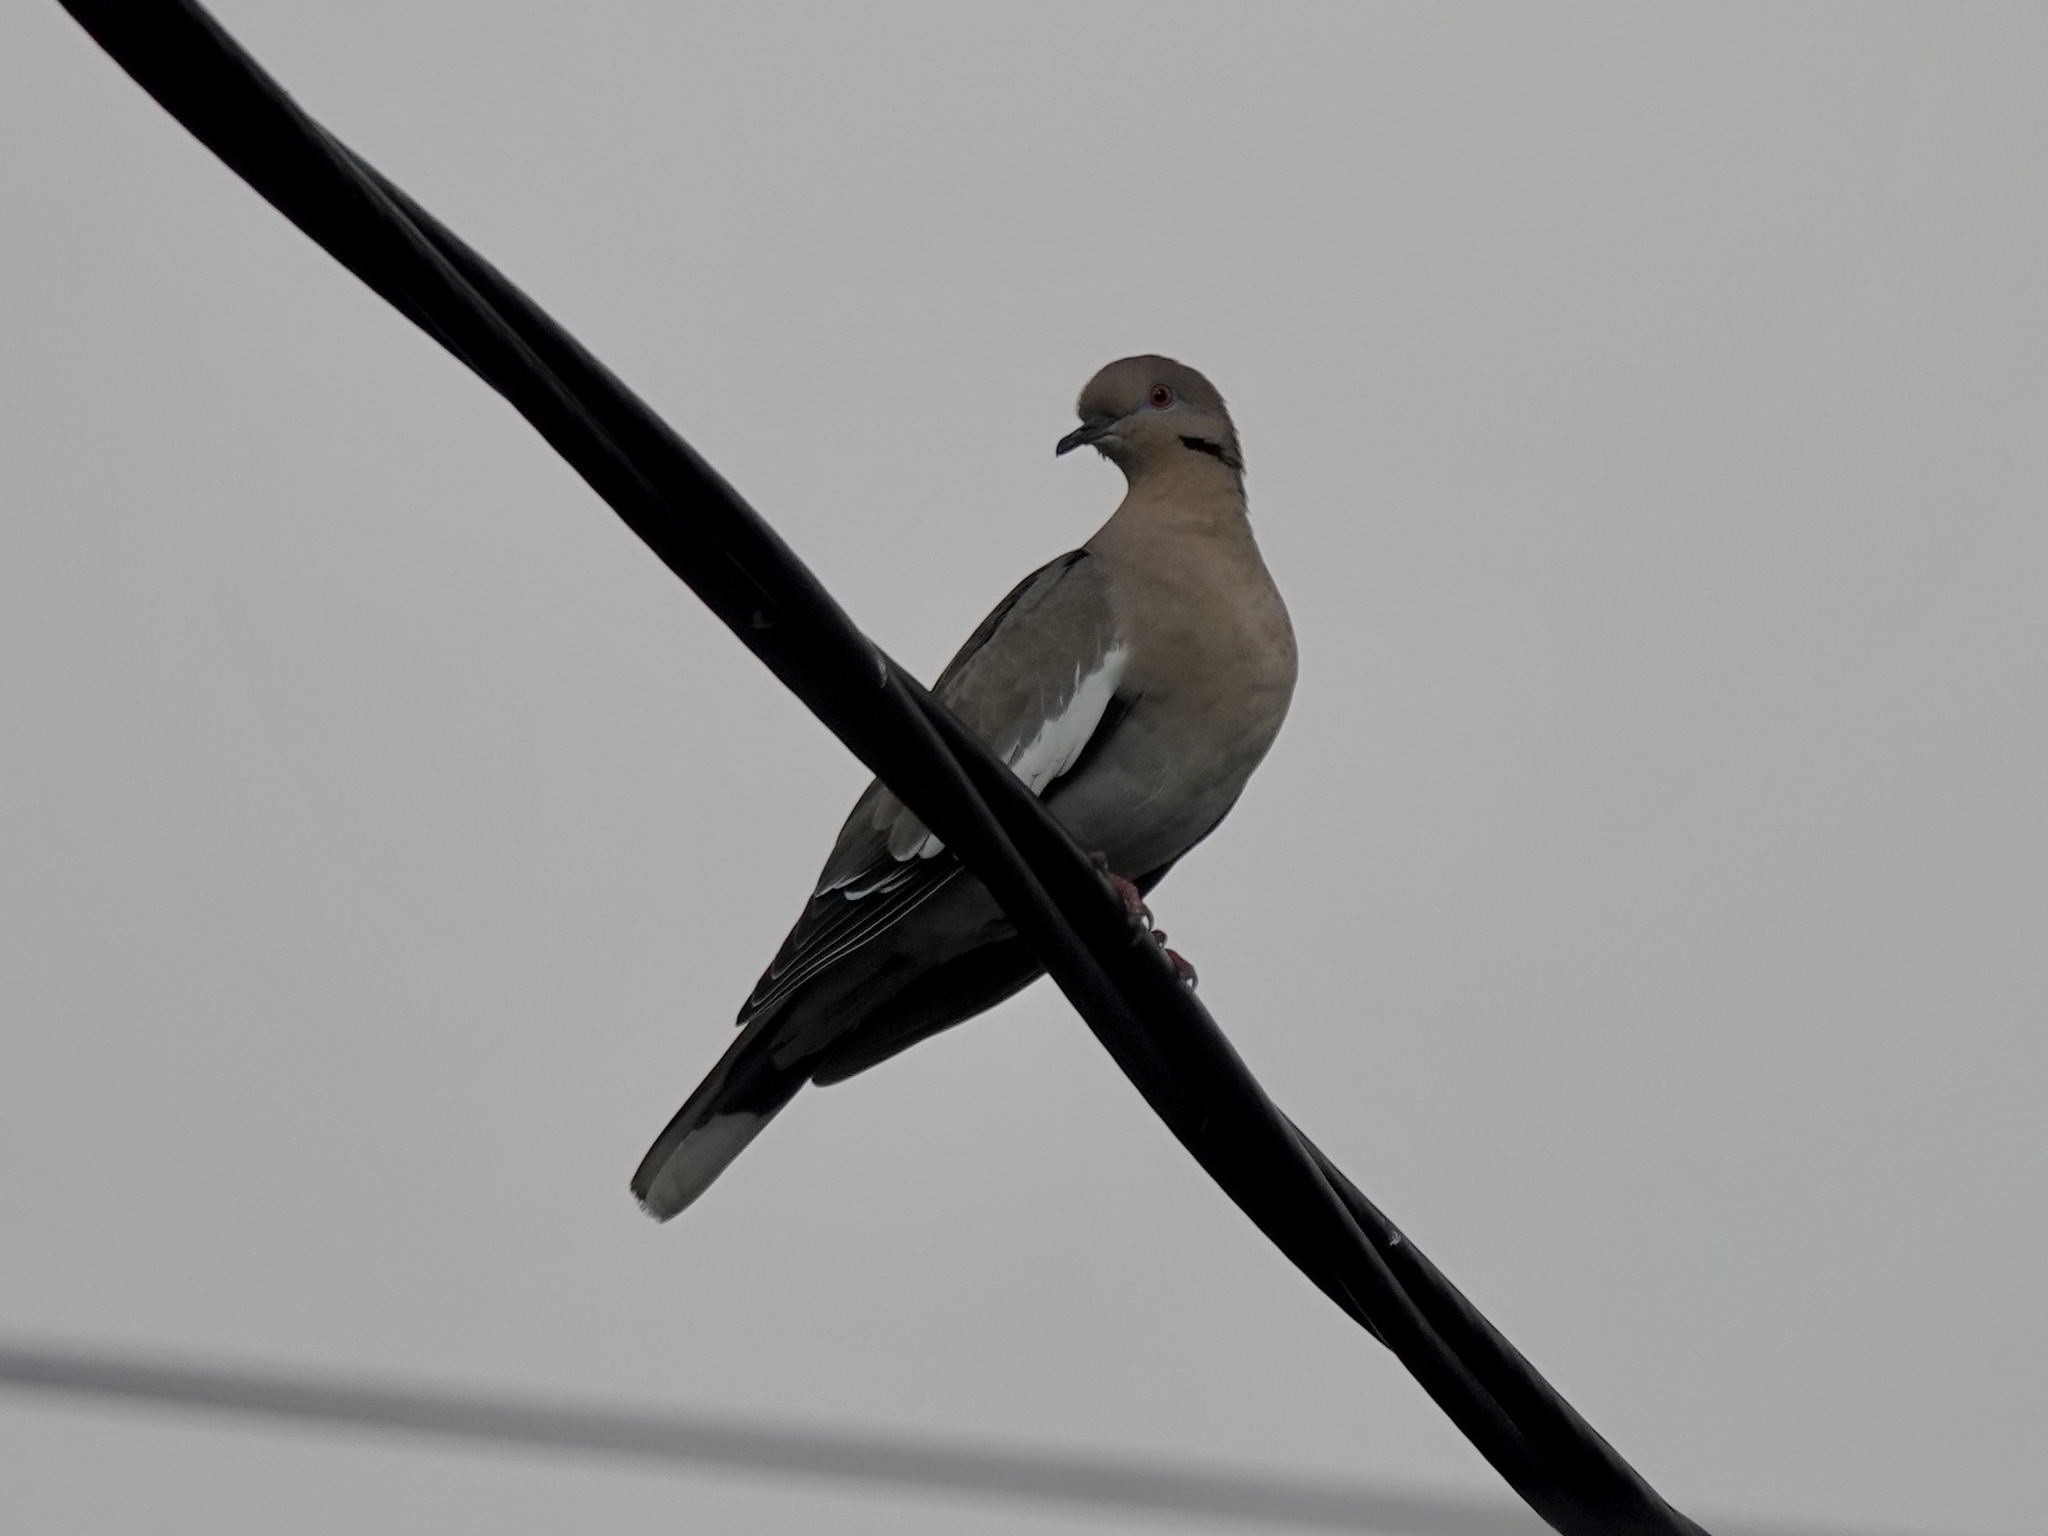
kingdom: Animalia
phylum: Chordata
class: Aves
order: Columbiformes
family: Columbidae
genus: Zenaida
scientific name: Zenaida asiatica
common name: White-winged dove
